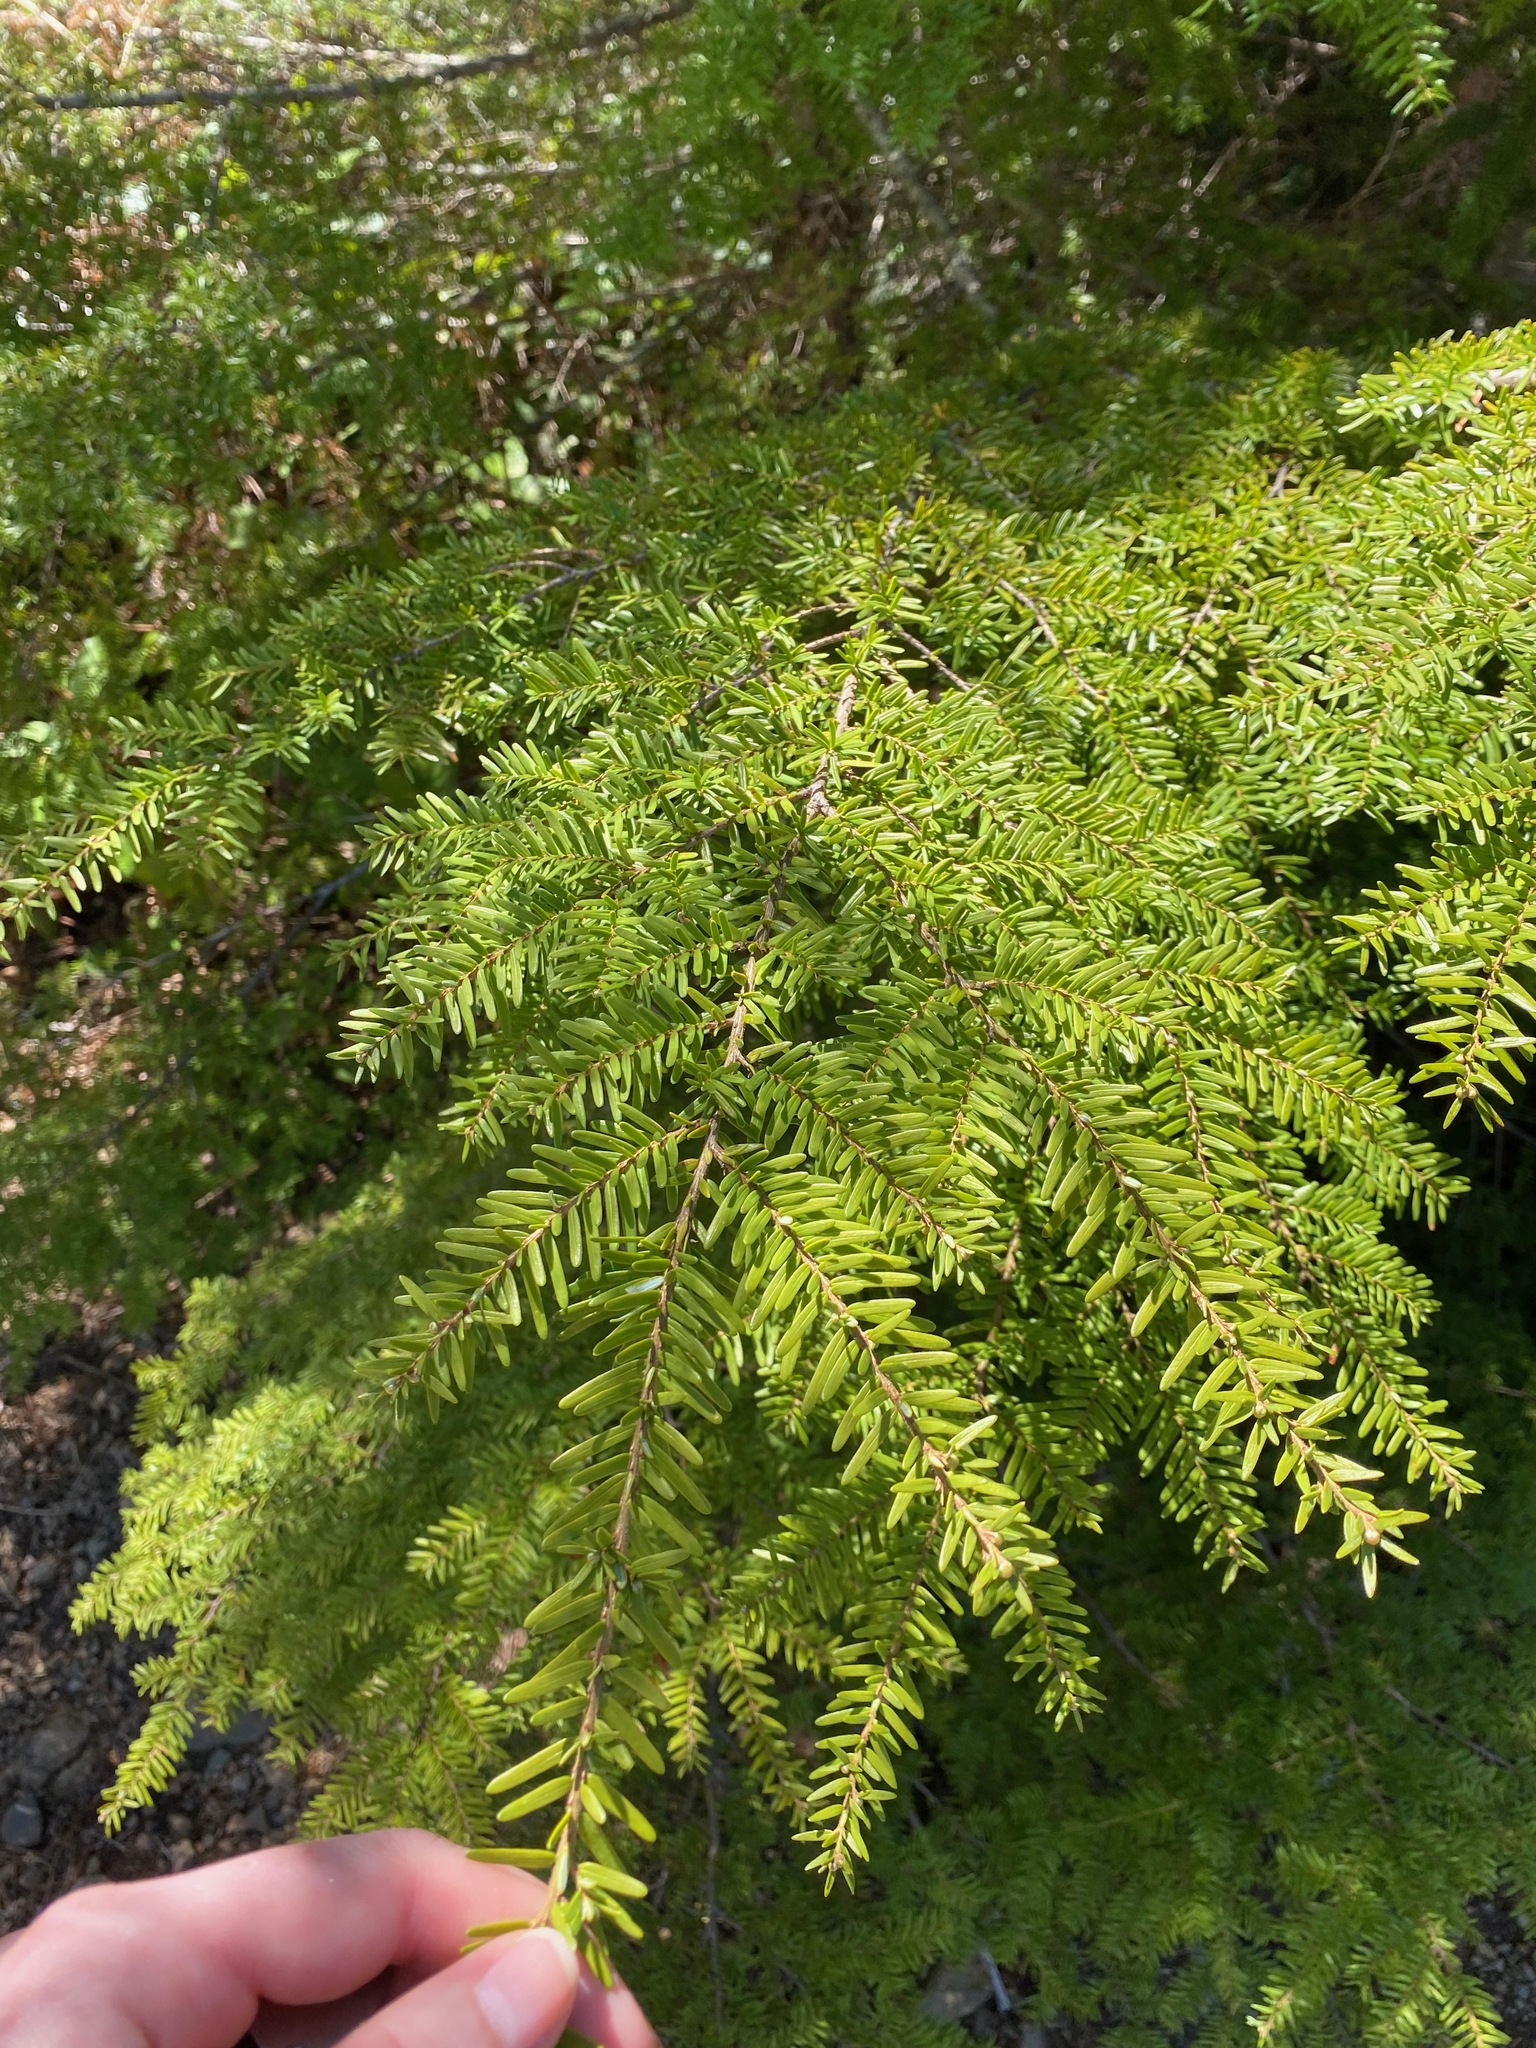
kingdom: Plantae
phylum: Tracheophyta
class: Pinopsida
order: Pinales
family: Pinaceae
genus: Tsuga
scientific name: Tsuga heterophylla
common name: Western hemlock
